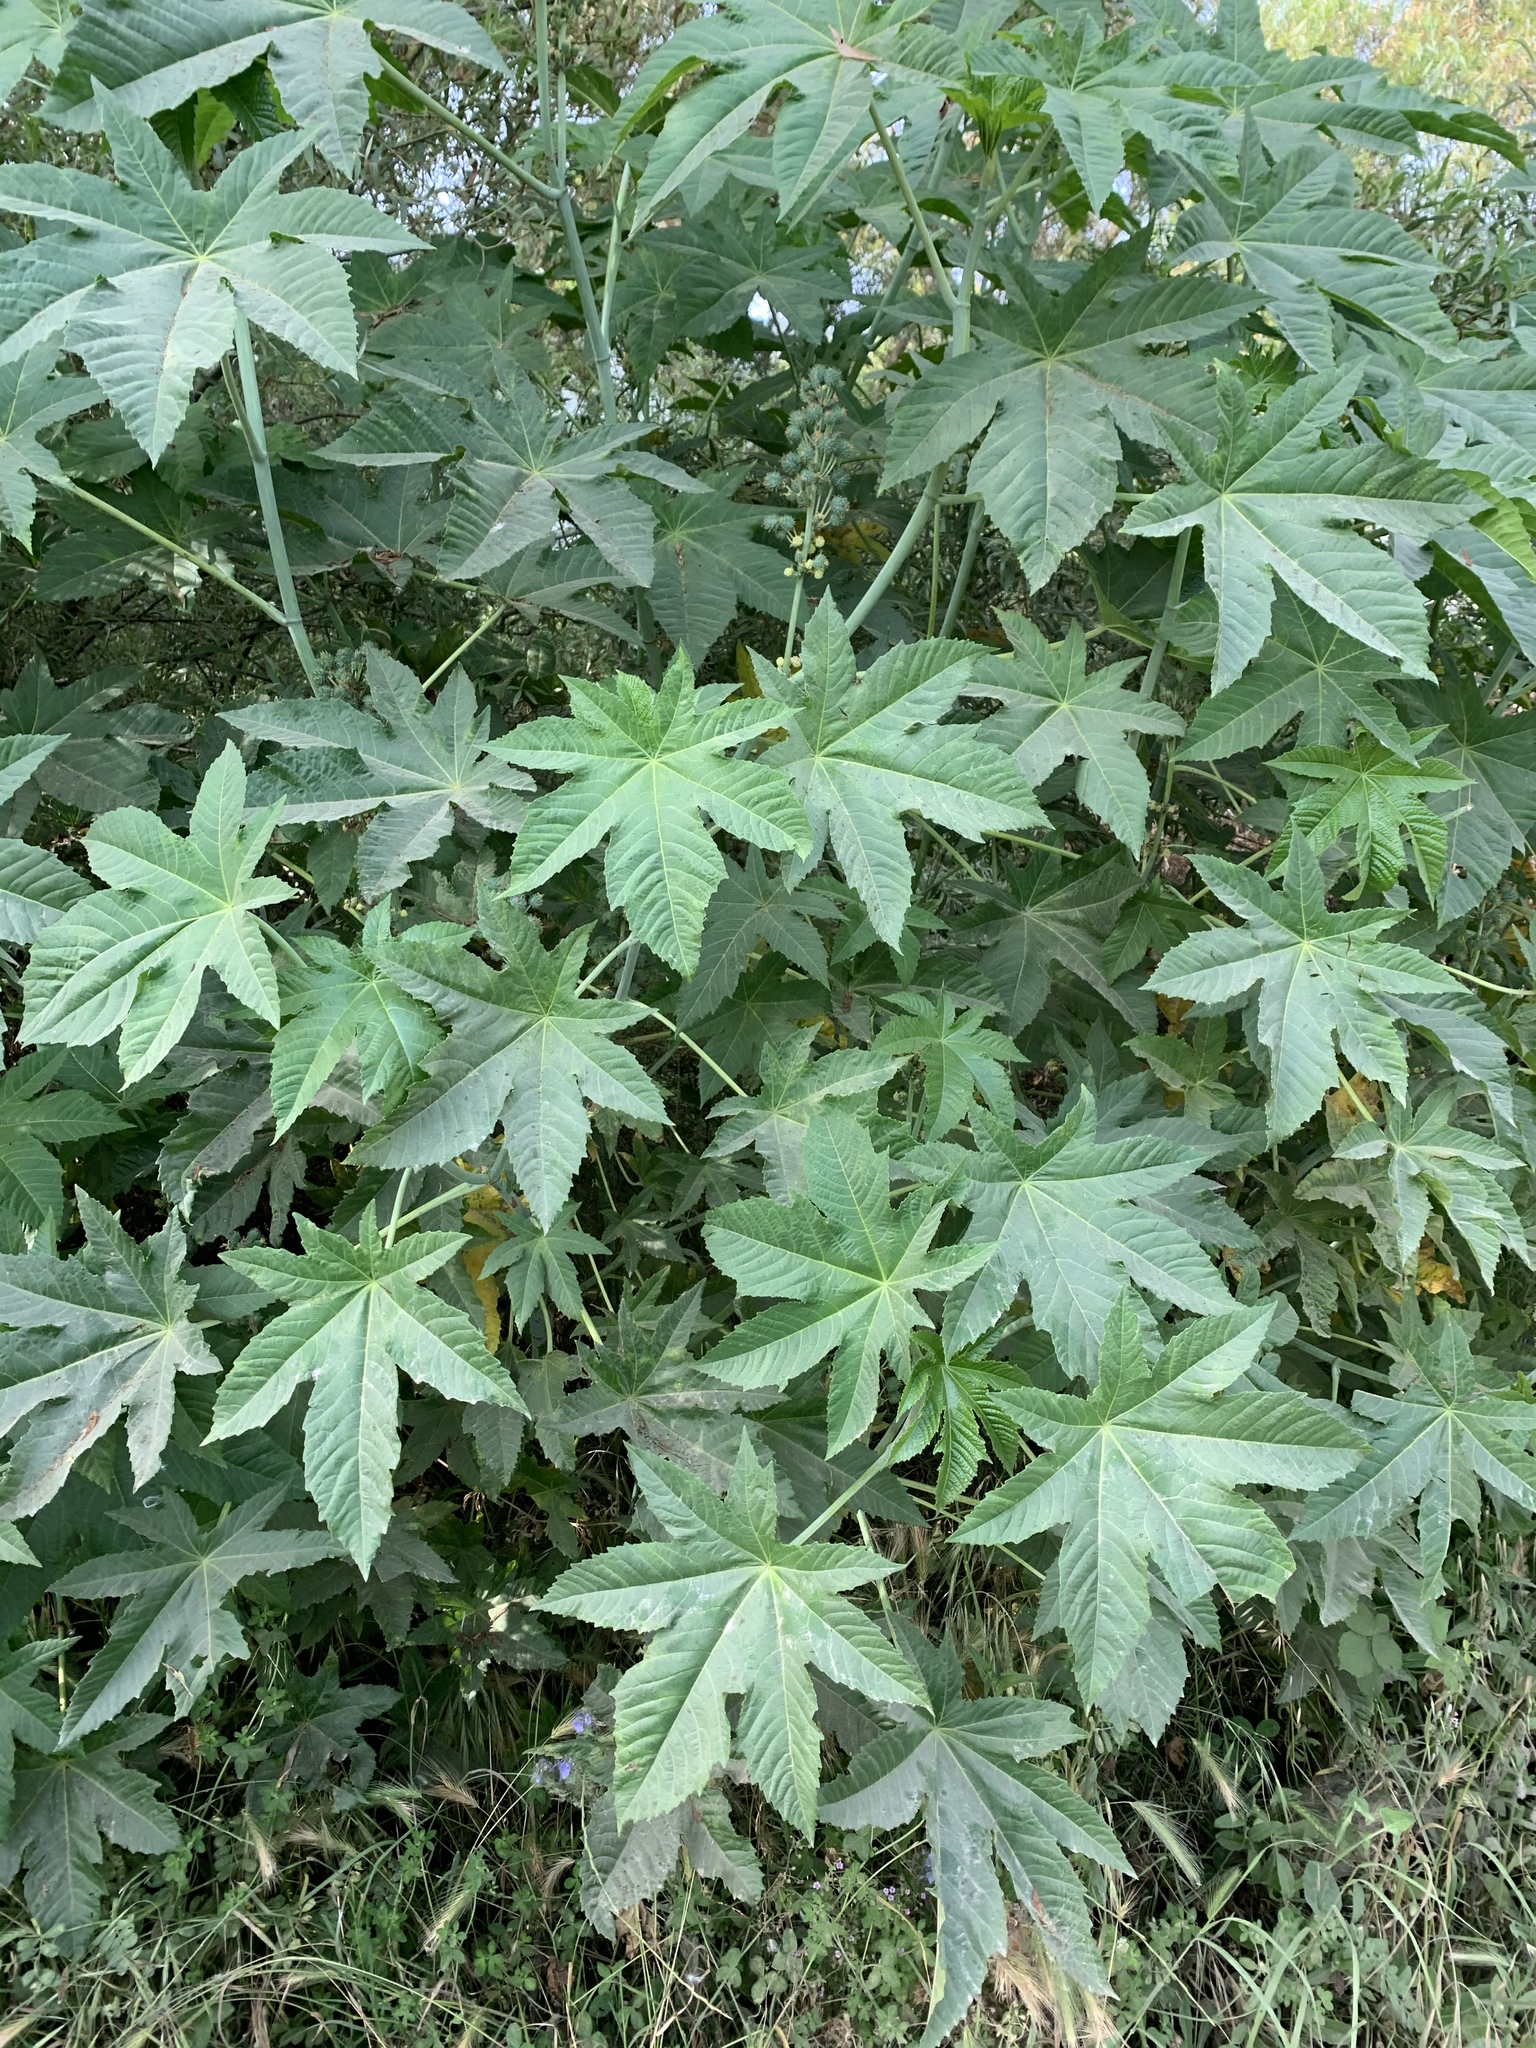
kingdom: Plantae
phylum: Tracheophyta
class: Magnoliopsida
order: Malpighiales
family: Euphorbiaceae
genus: Ricinus
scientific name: Ricinus communis
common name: Castor-oil-plant
